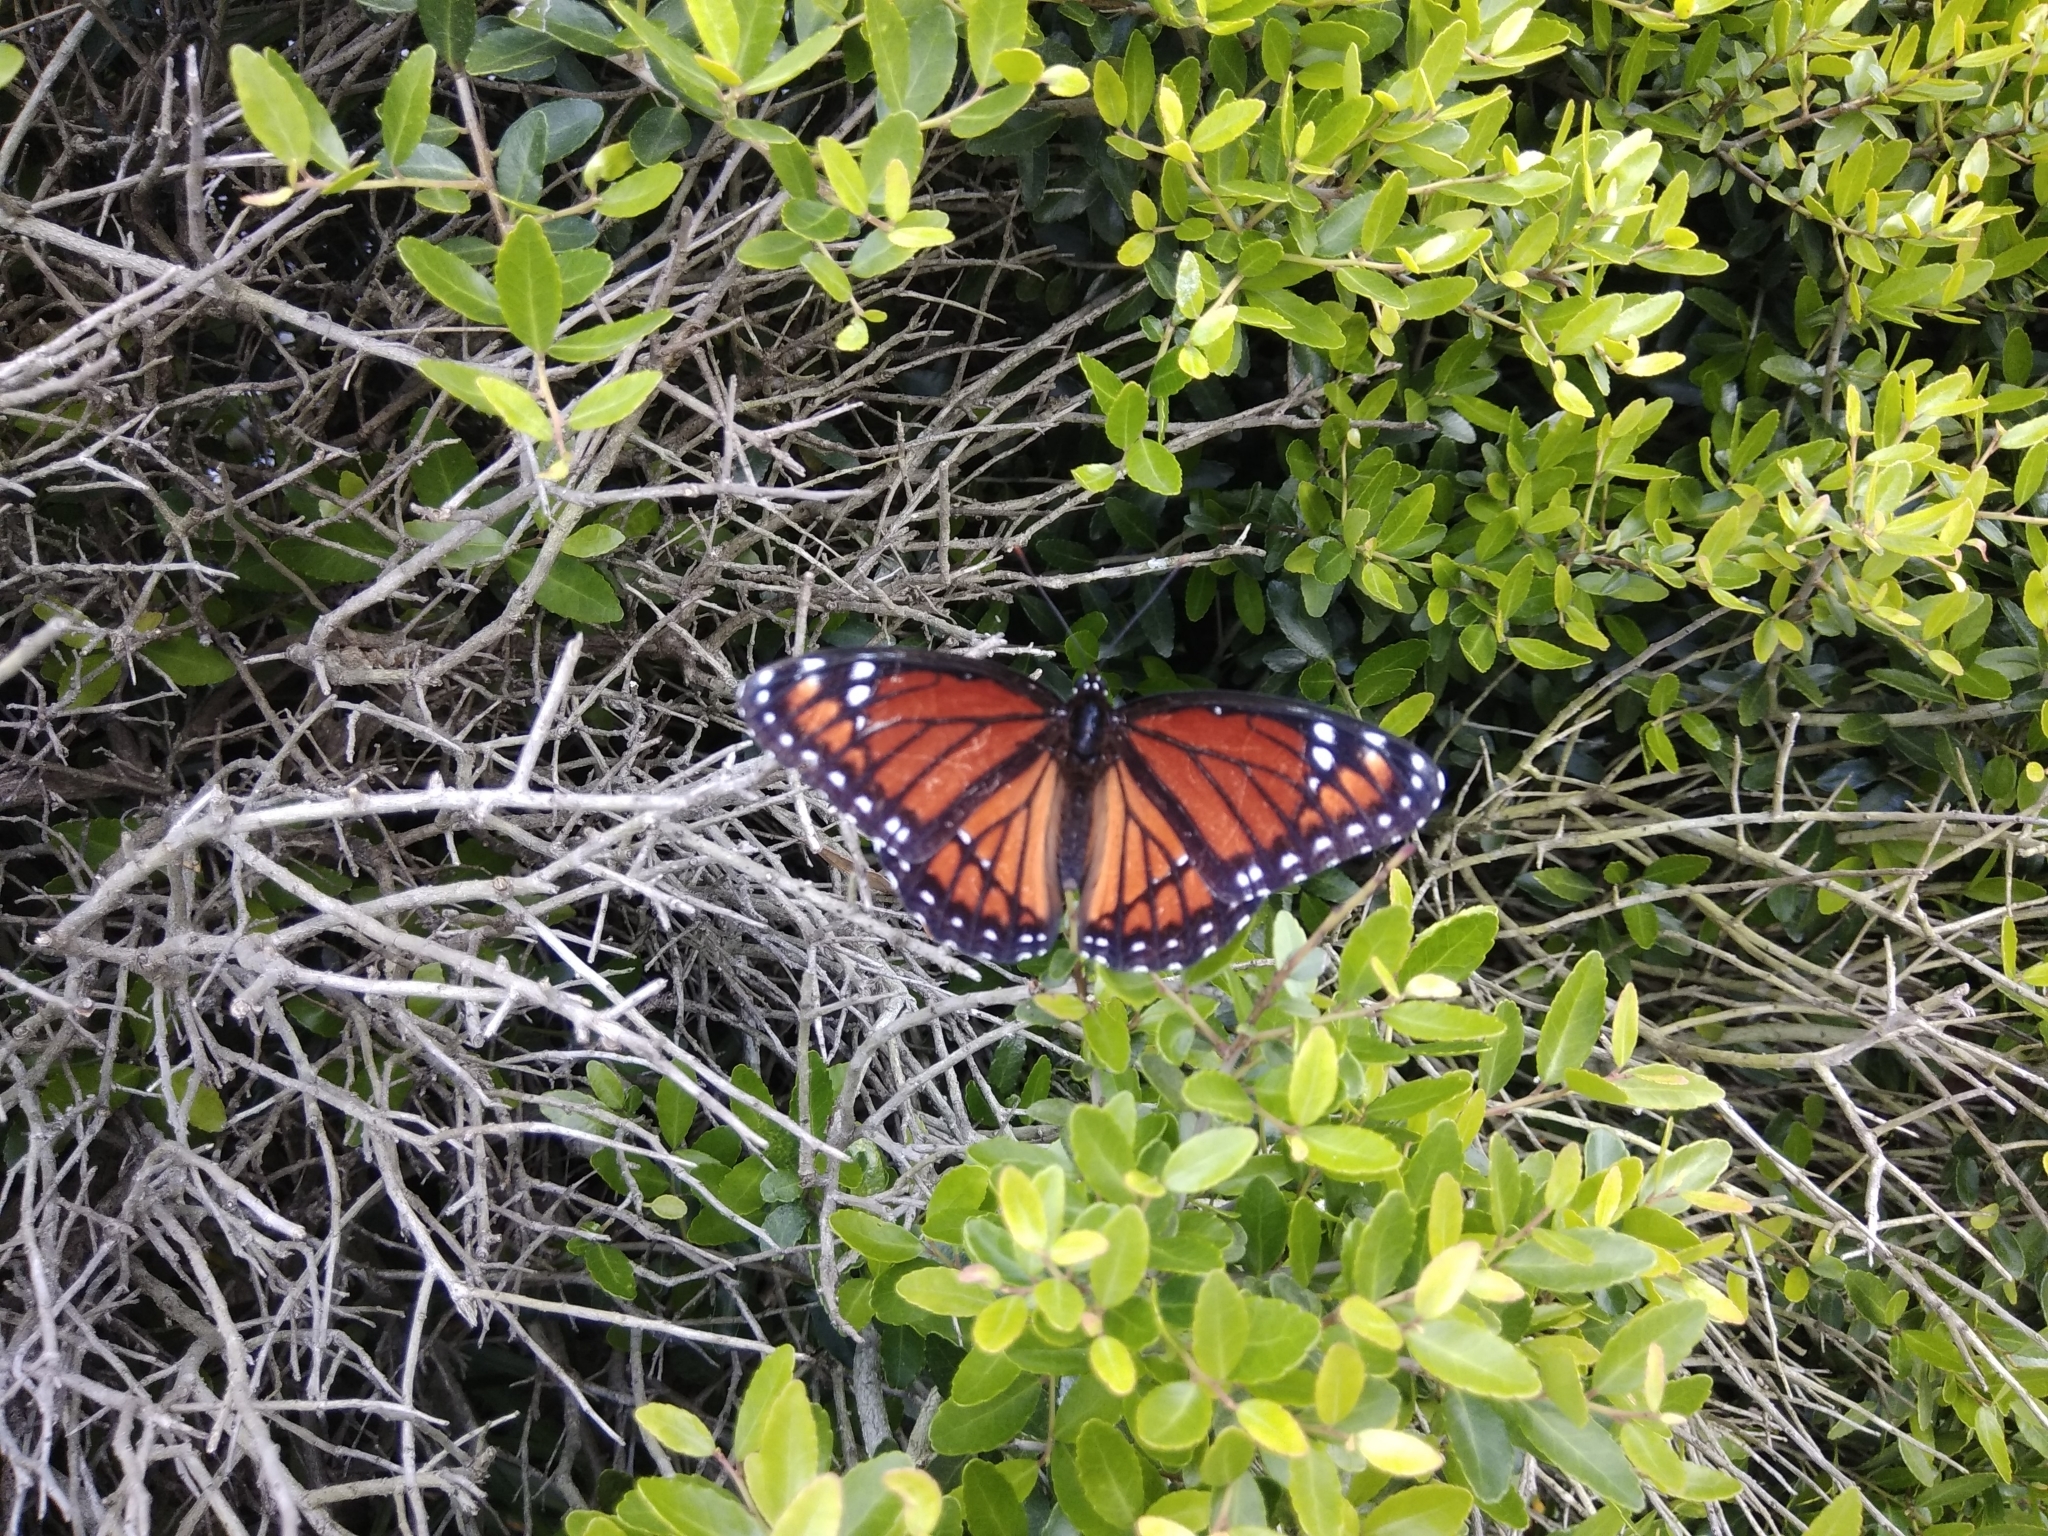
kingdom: Animalia
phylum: Arthropoda
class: Insecta
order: Lepidoptera
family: Nymphalidae
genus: Limenitis
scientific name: Limenitis archippus
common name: Viceroy
